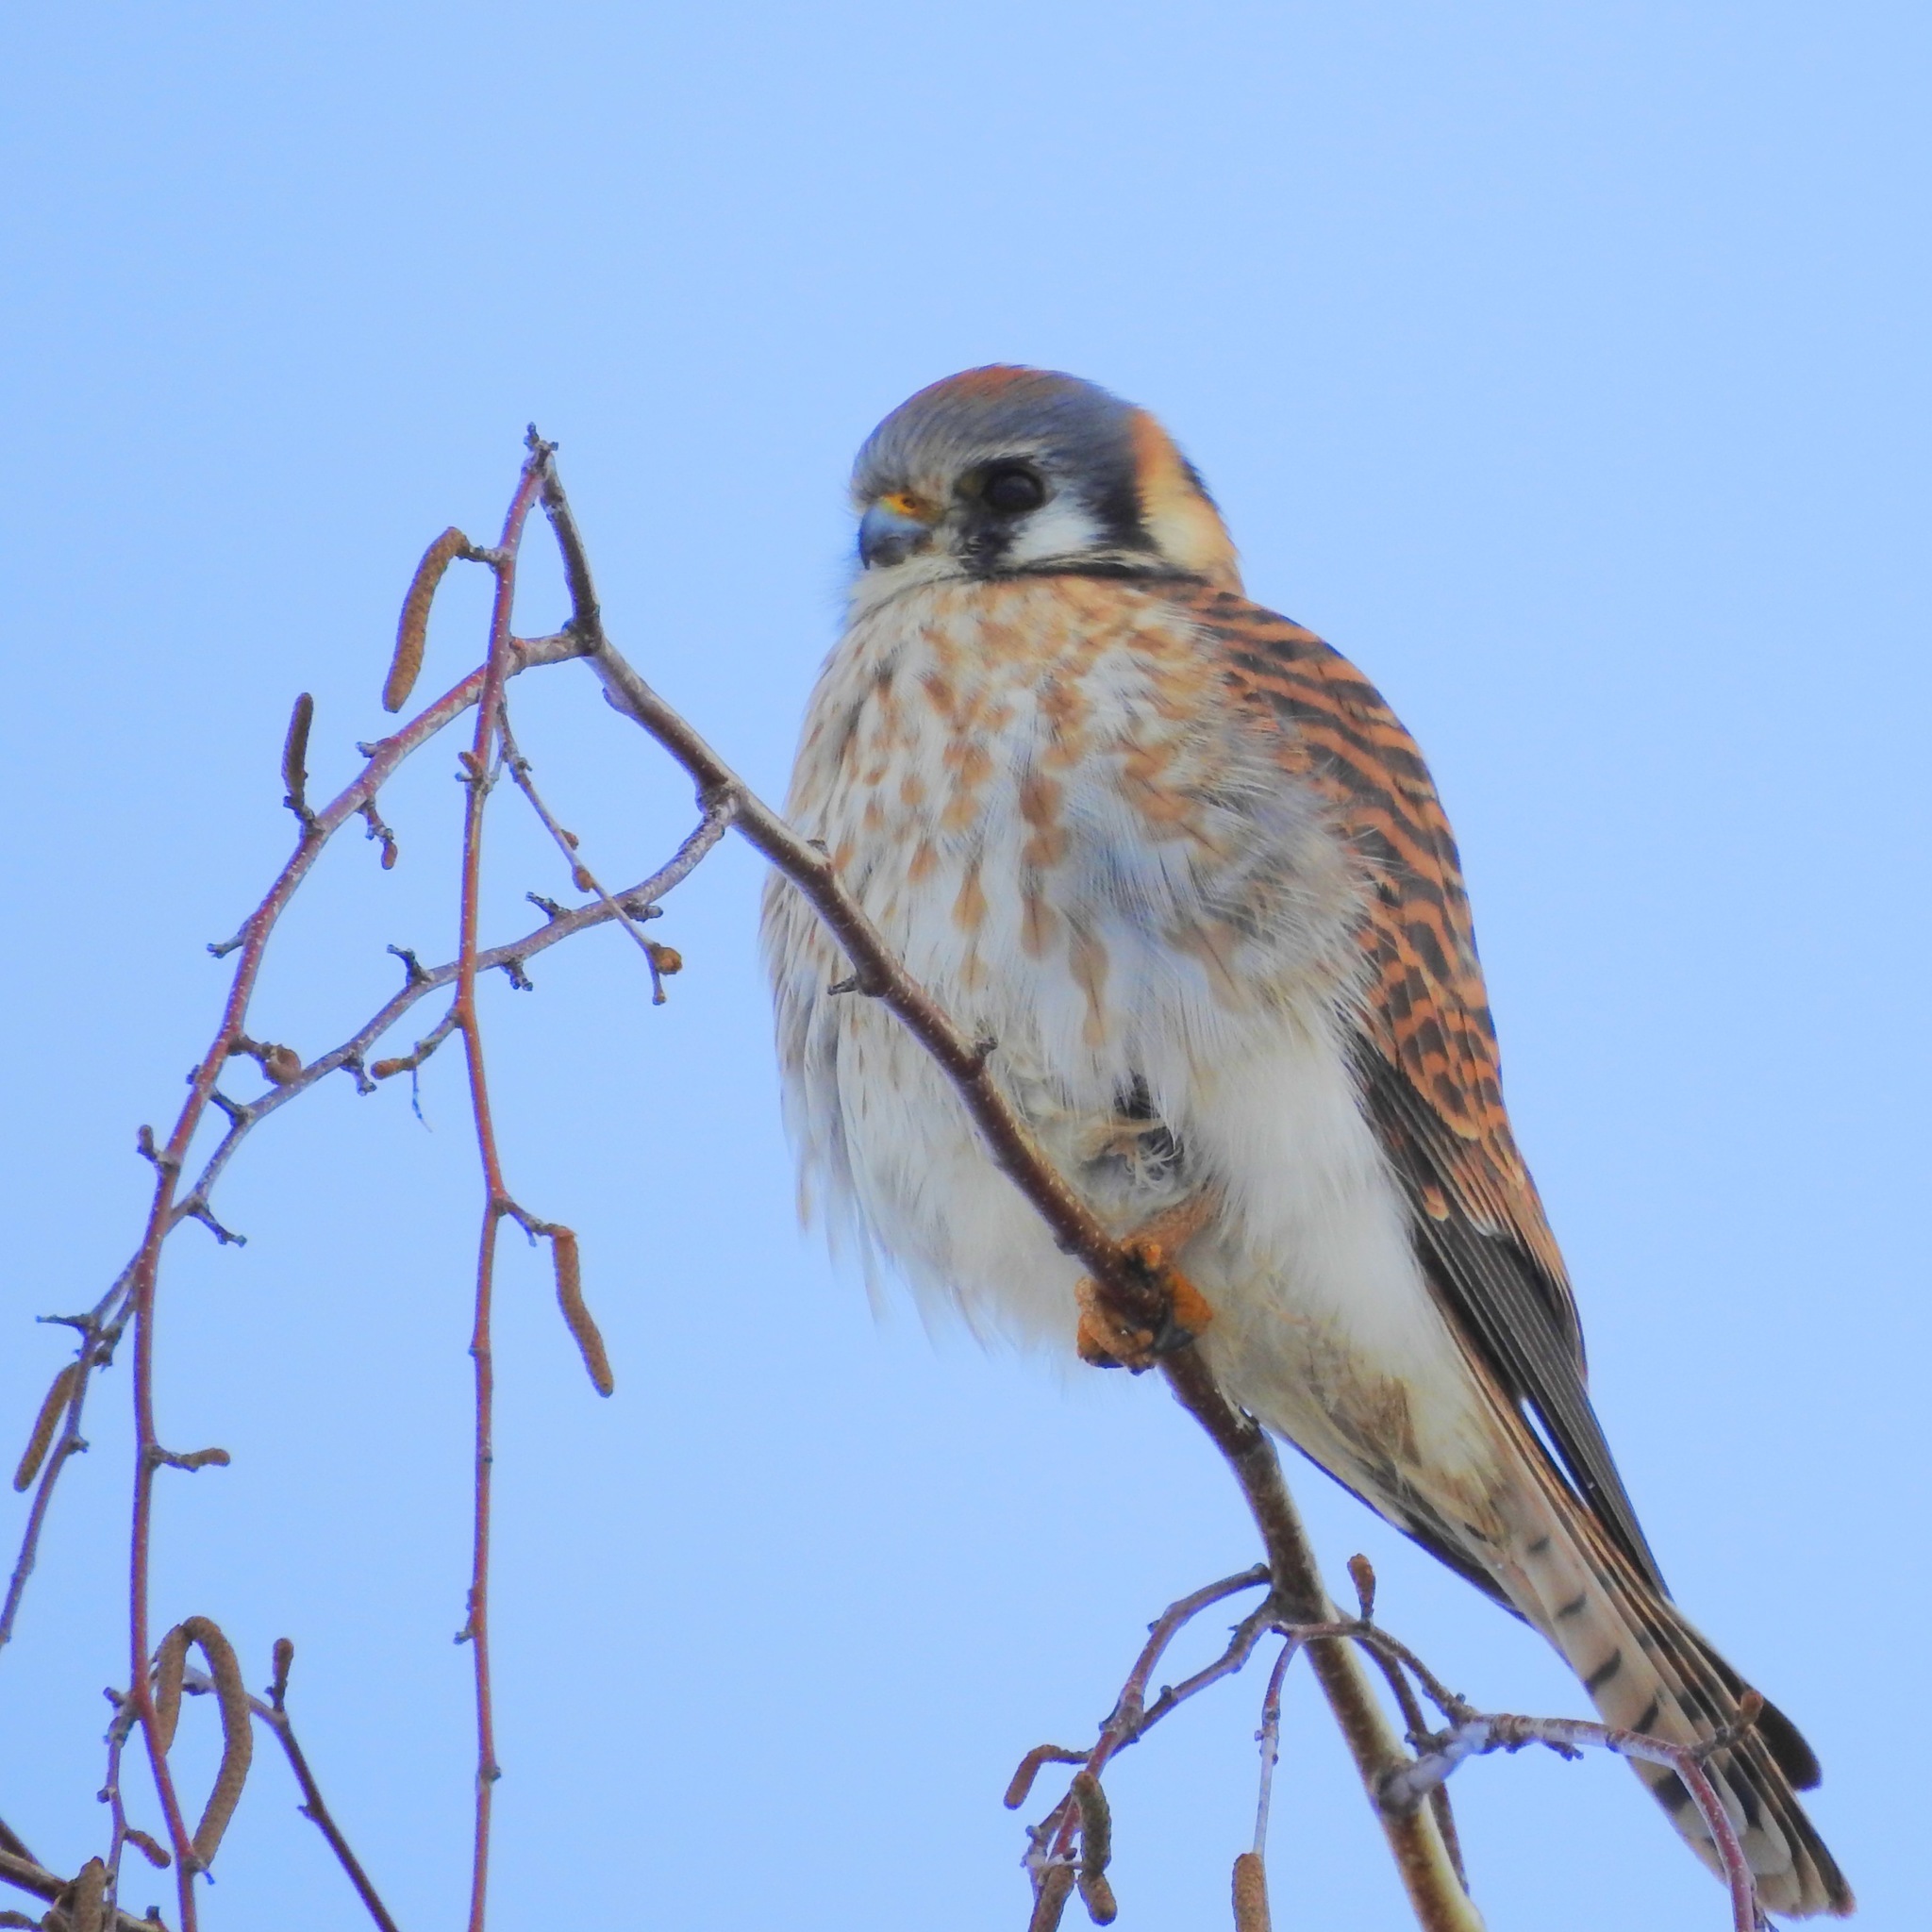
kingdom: Animalia
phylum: Chordata
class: Aves
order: Falconiformes
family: Falconidae
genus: Falco
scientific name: Falco sparverius
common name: American kestrel
